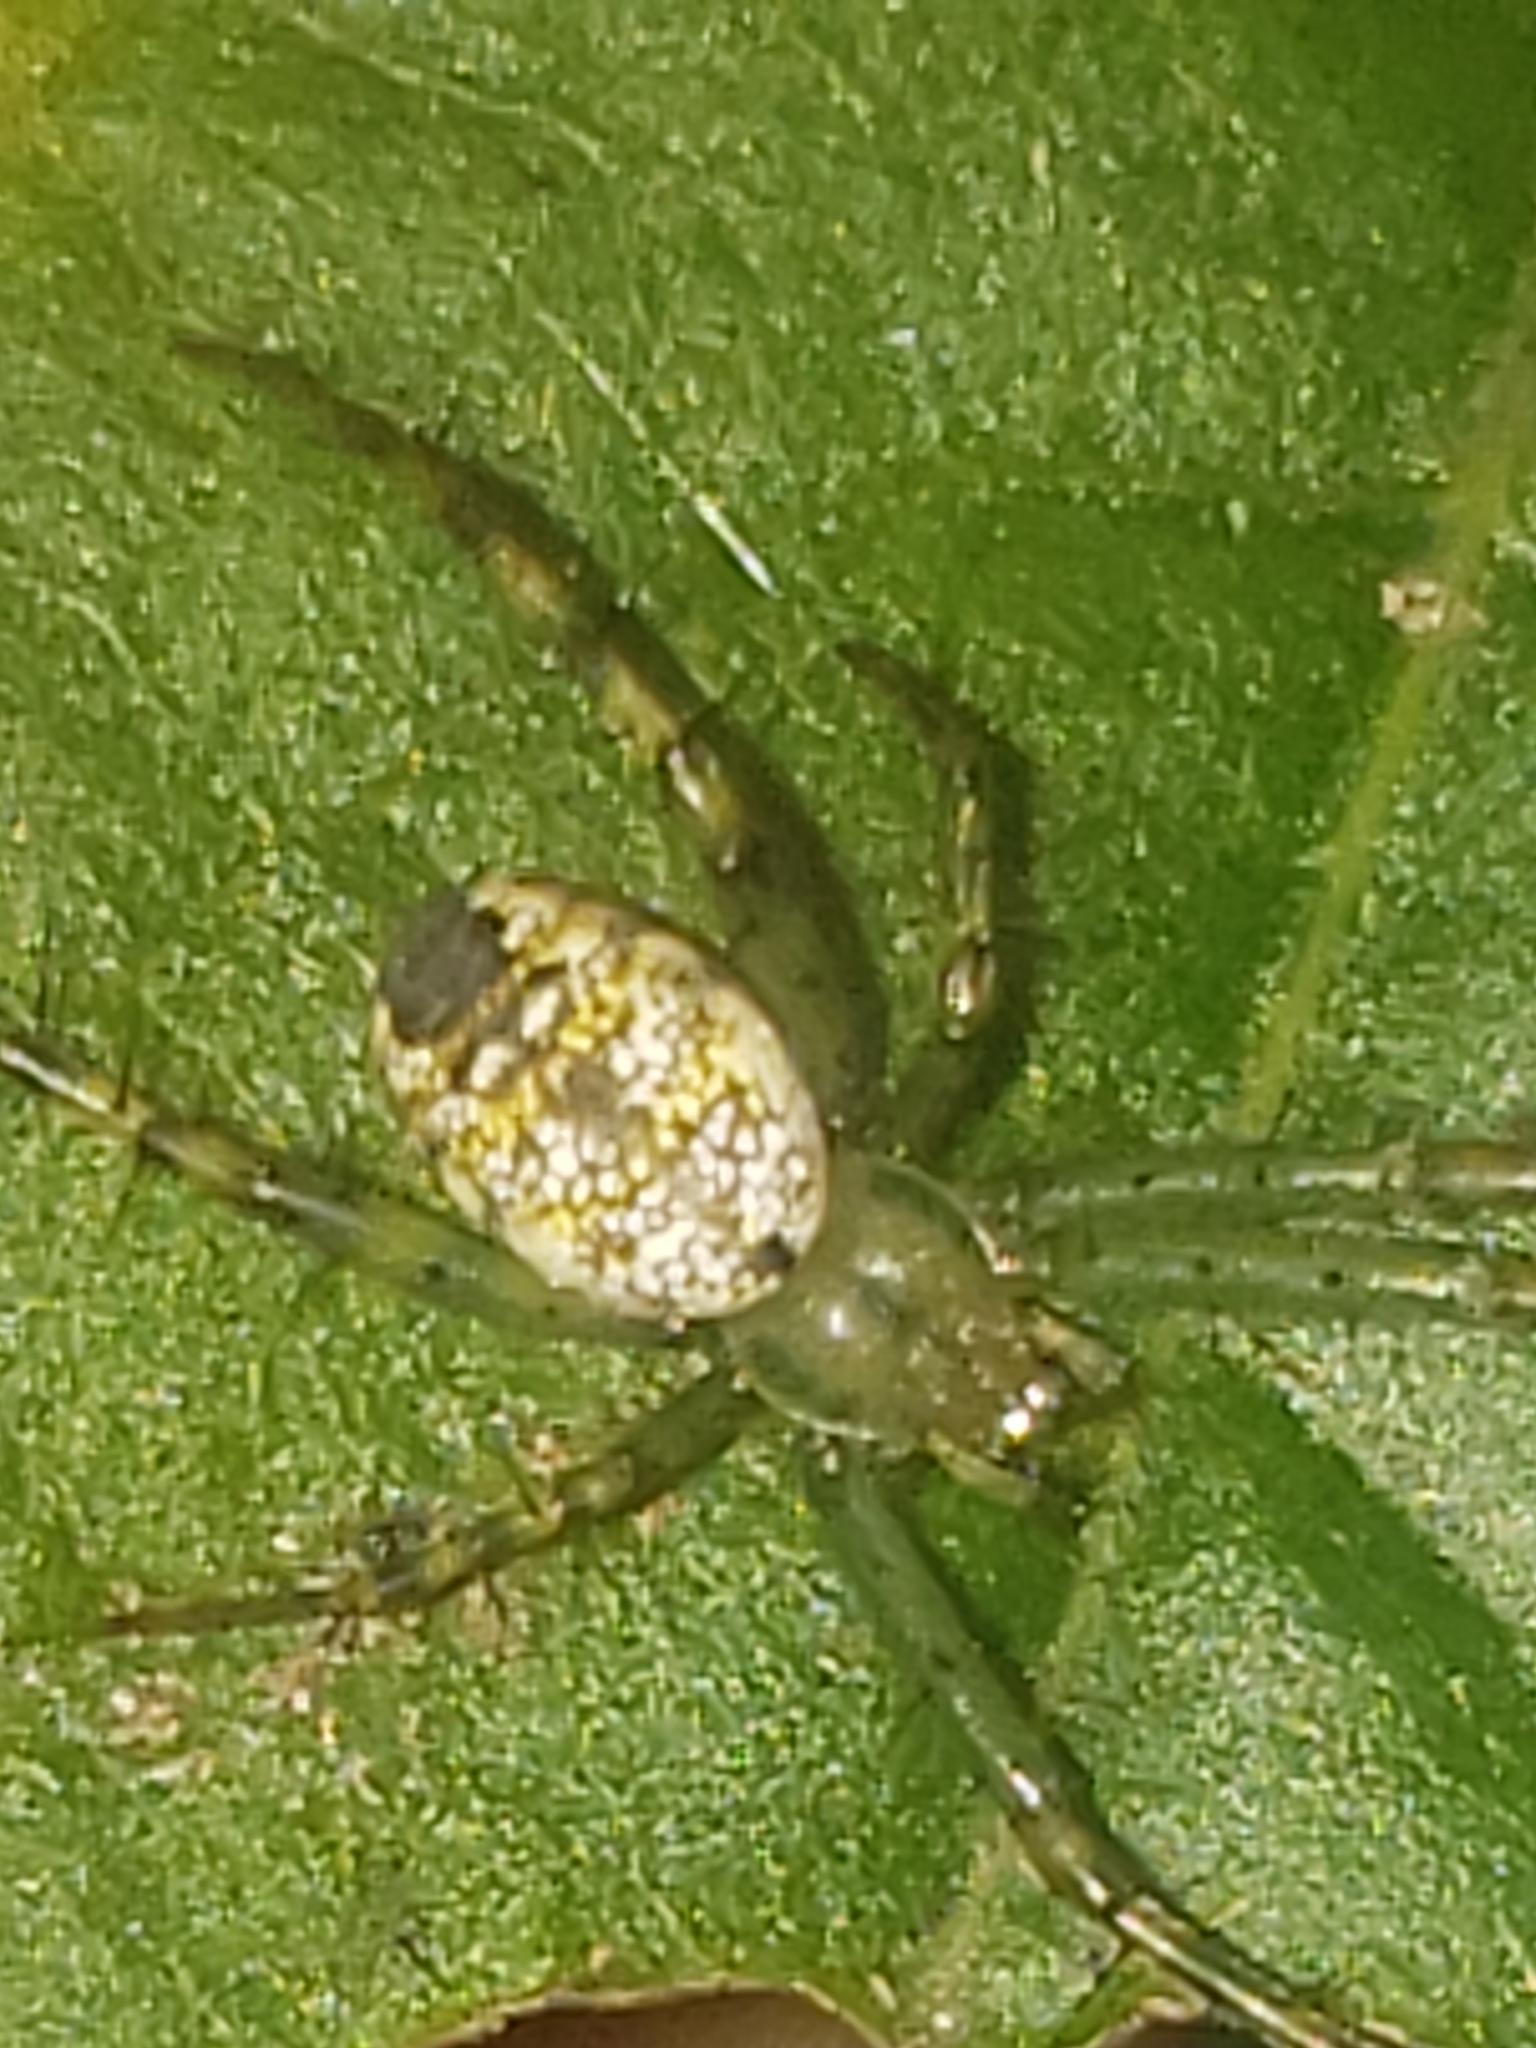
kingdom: Animalia
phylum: Arthropoda
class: Arachnida
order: Araneae
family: Araneidae
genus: Mangora
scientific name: Mangora spiculata
